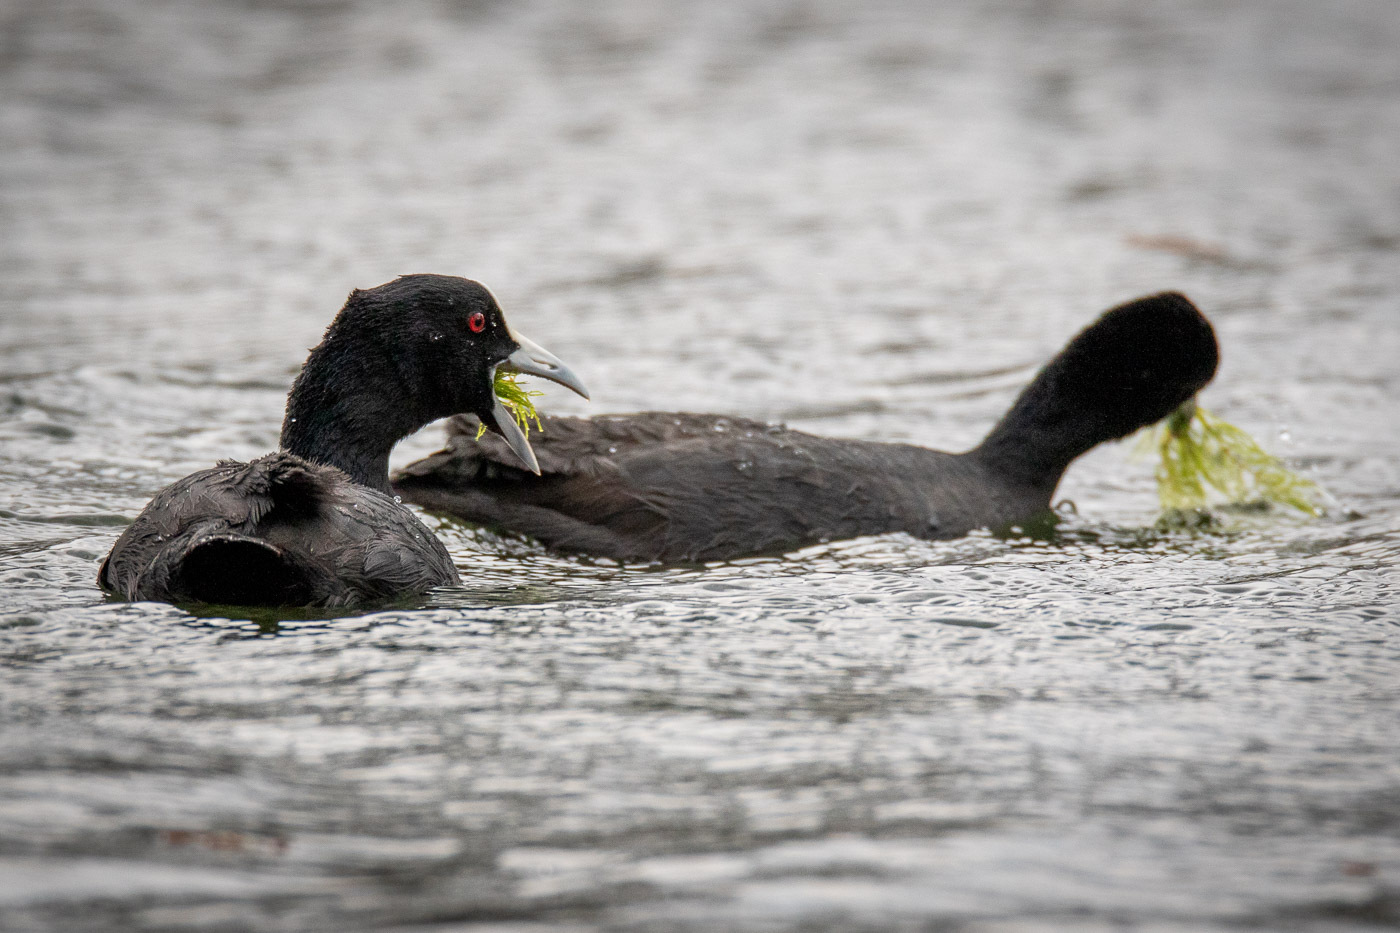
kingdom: Animalia
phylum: Chordata
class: Aves
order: Gruiformes
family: Rallidae
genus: Fulica
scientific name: Fulica atra
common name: Eurasian coot
